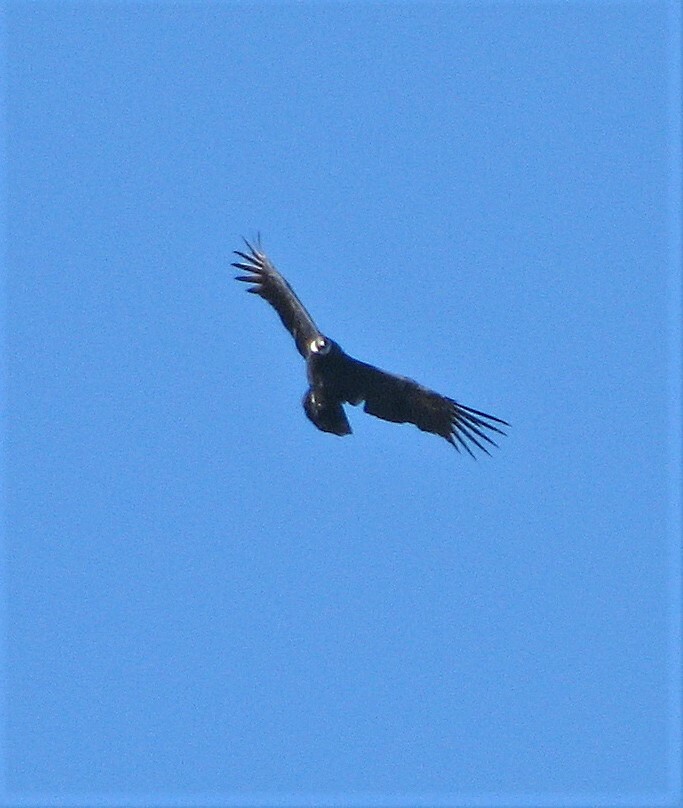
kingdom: Animalia
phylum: Chordata
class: Aves
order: Accipitriformes
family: Cathartidae
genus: Vultur
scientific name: Vultur gryphus
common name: Andean condor
